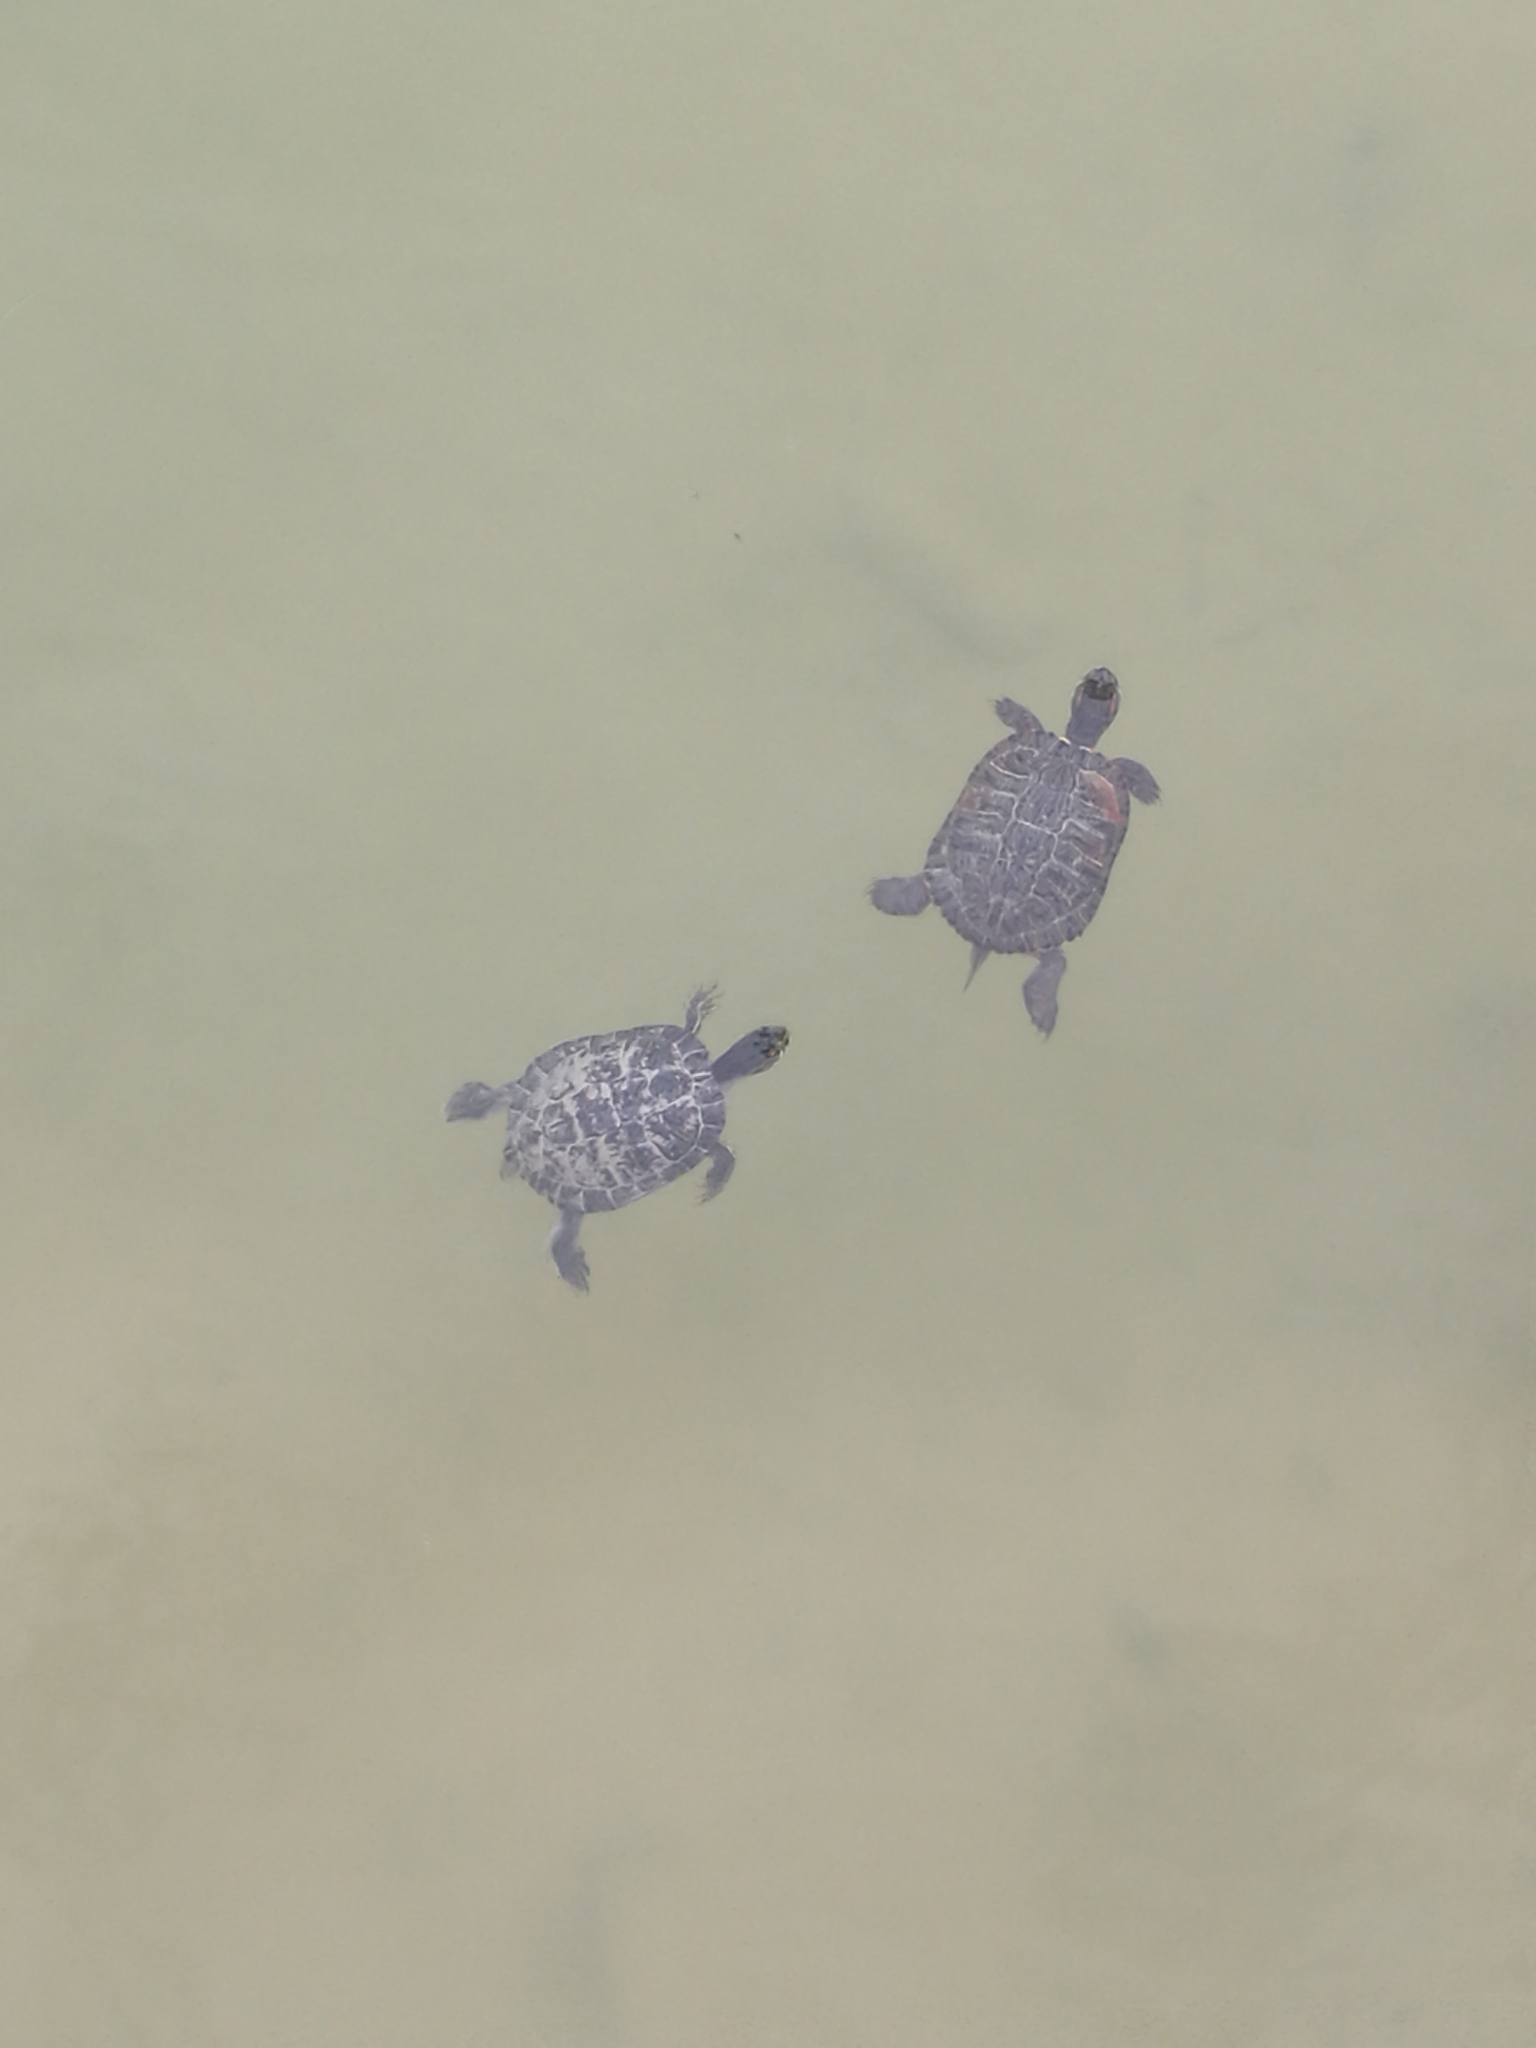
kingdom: Animalia
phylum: Chordata
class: Testudines
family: Emydidae
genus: Trachemys
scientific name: Trachemys scripta
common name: Slider
